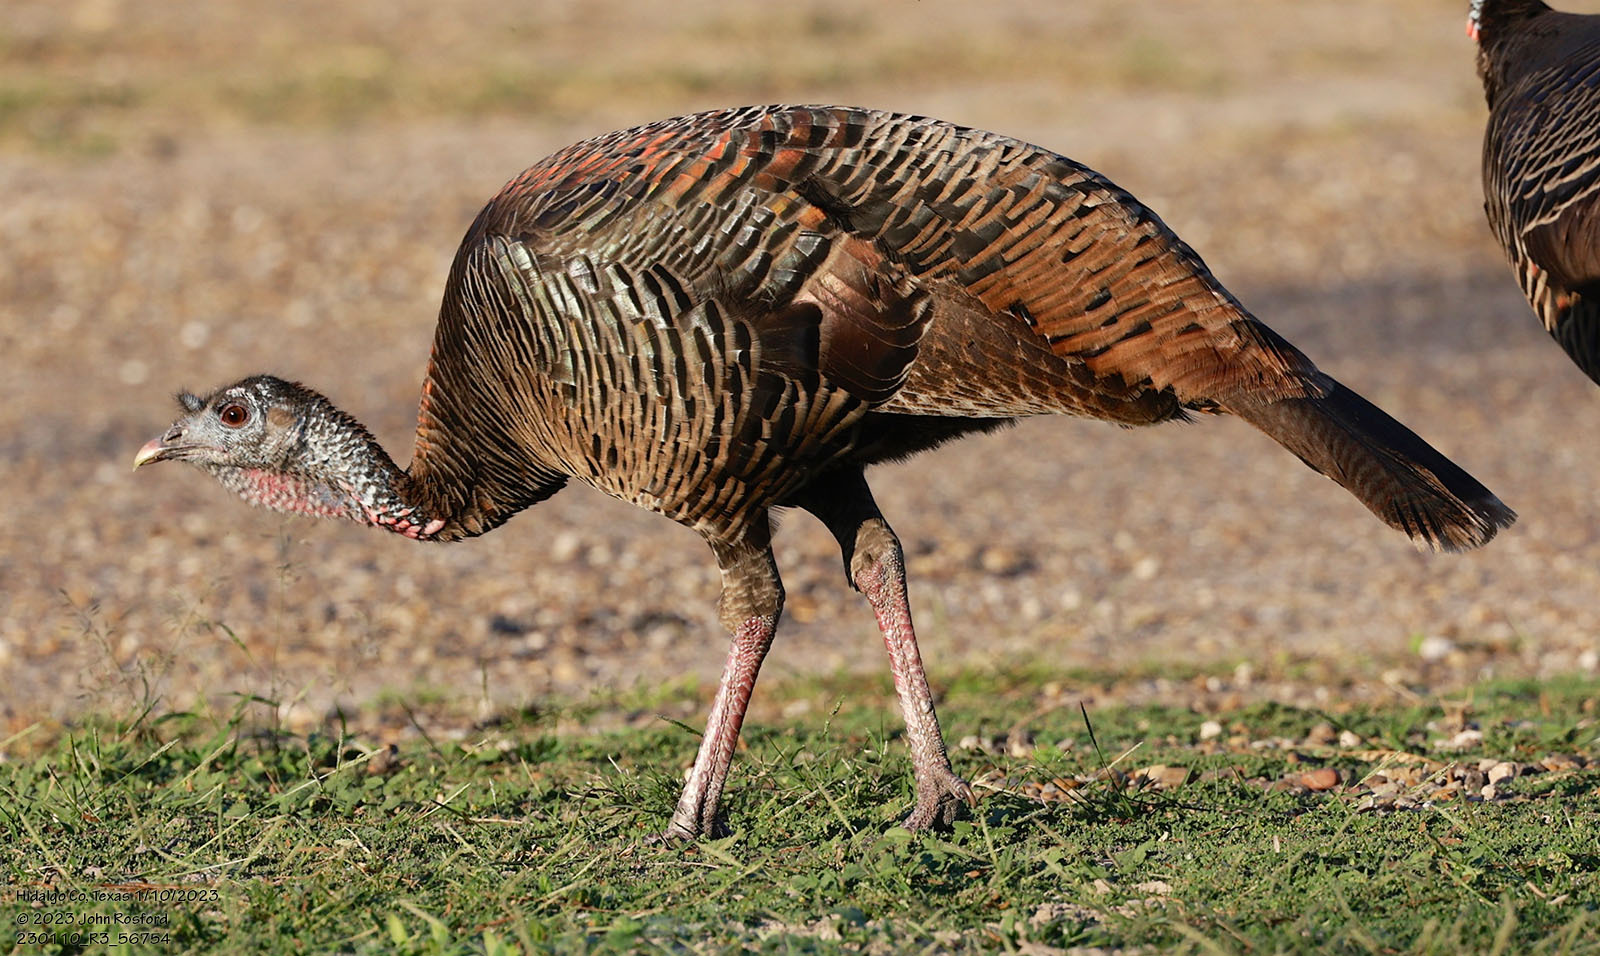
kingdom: Animalia
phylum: Chordata
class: Aves
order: Galliformes
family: Phasianidae
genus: Meleagris
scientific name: Meleagris gallopavo
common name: Wild turkey
